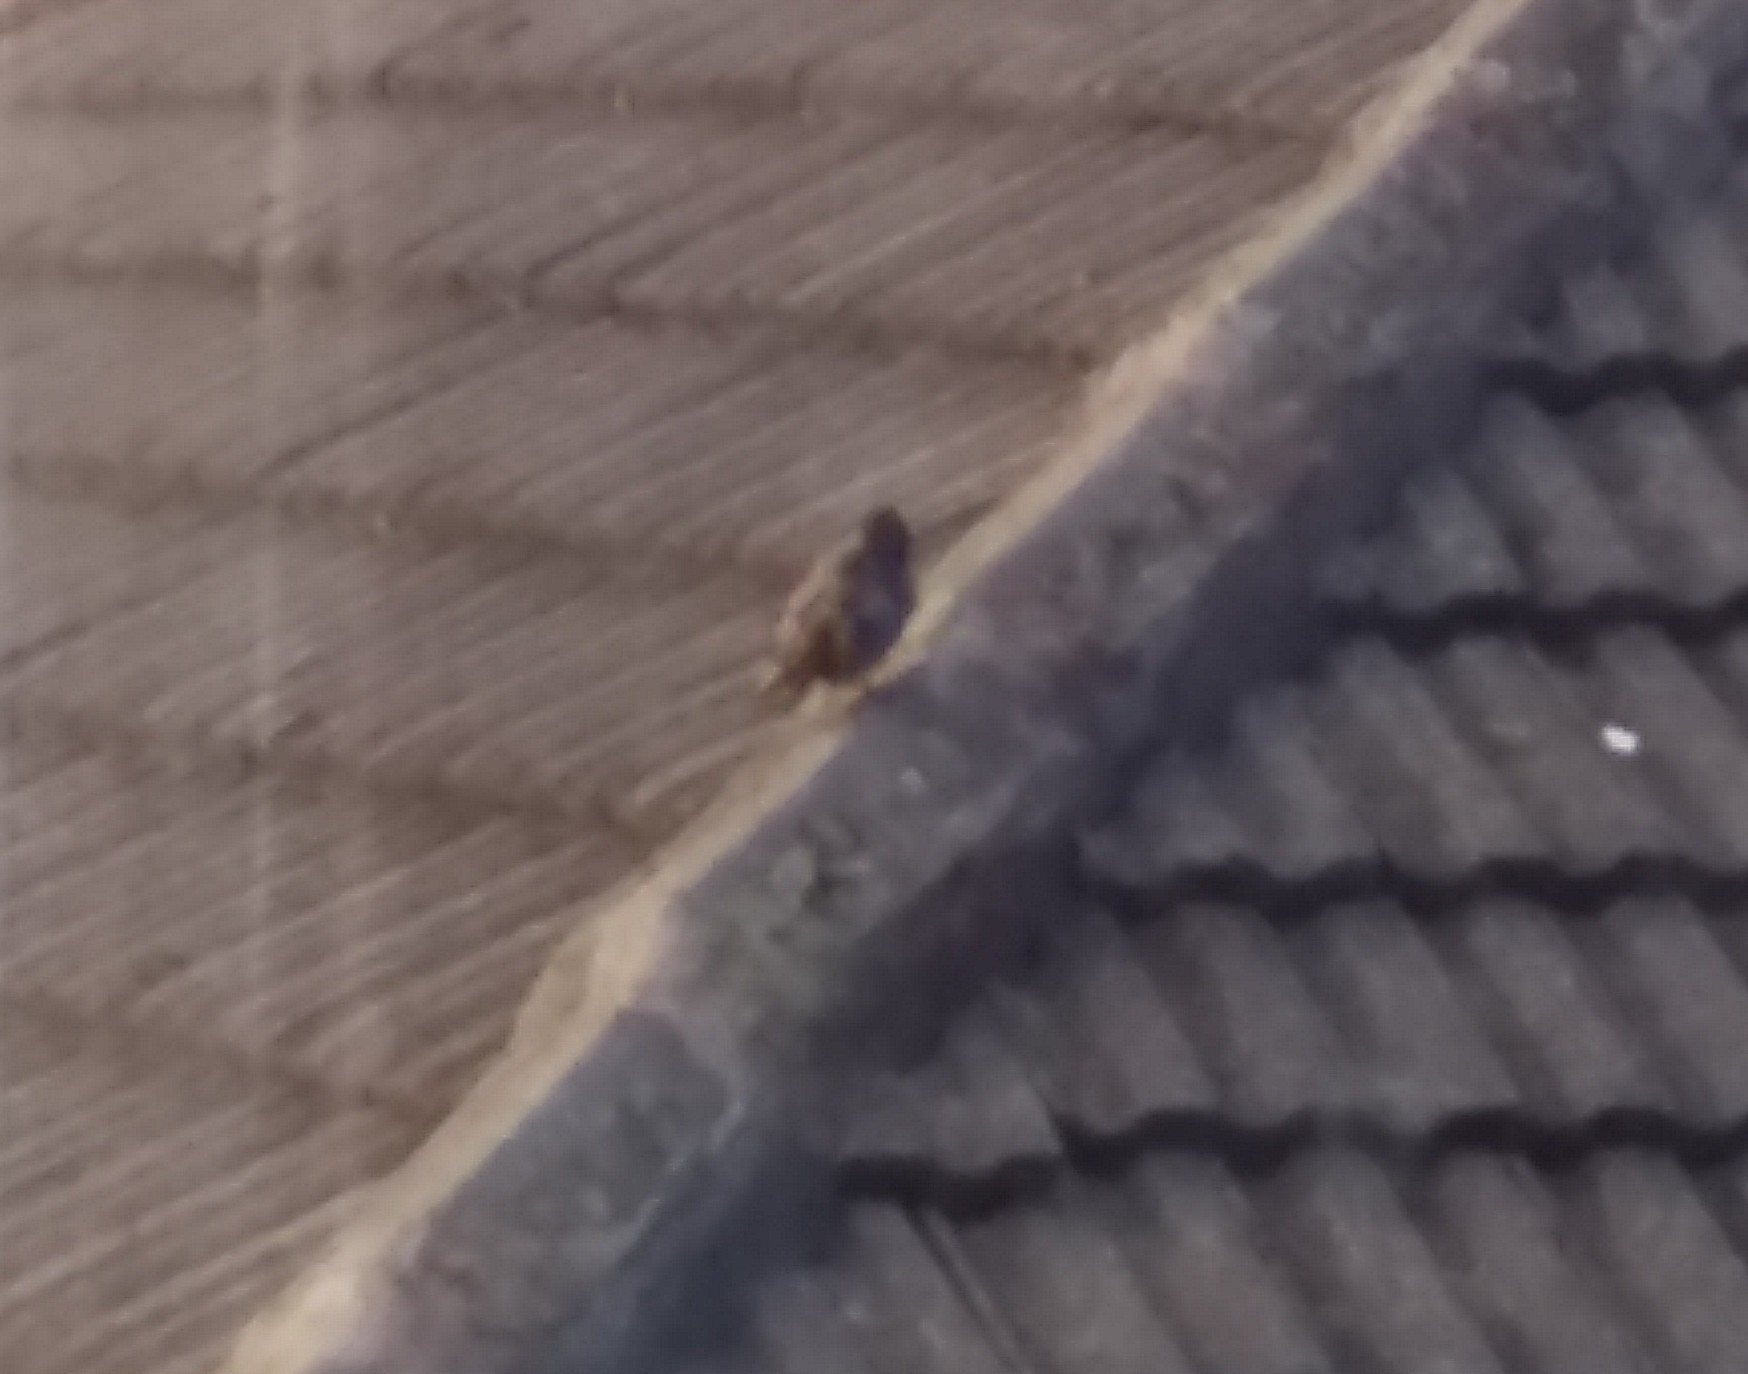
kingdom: Animalia
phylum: Chordata
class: Aves
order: Passeriformes
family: Sturnidae
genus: Sturnus
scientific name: Sturnus vulgaris
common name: Common starling
